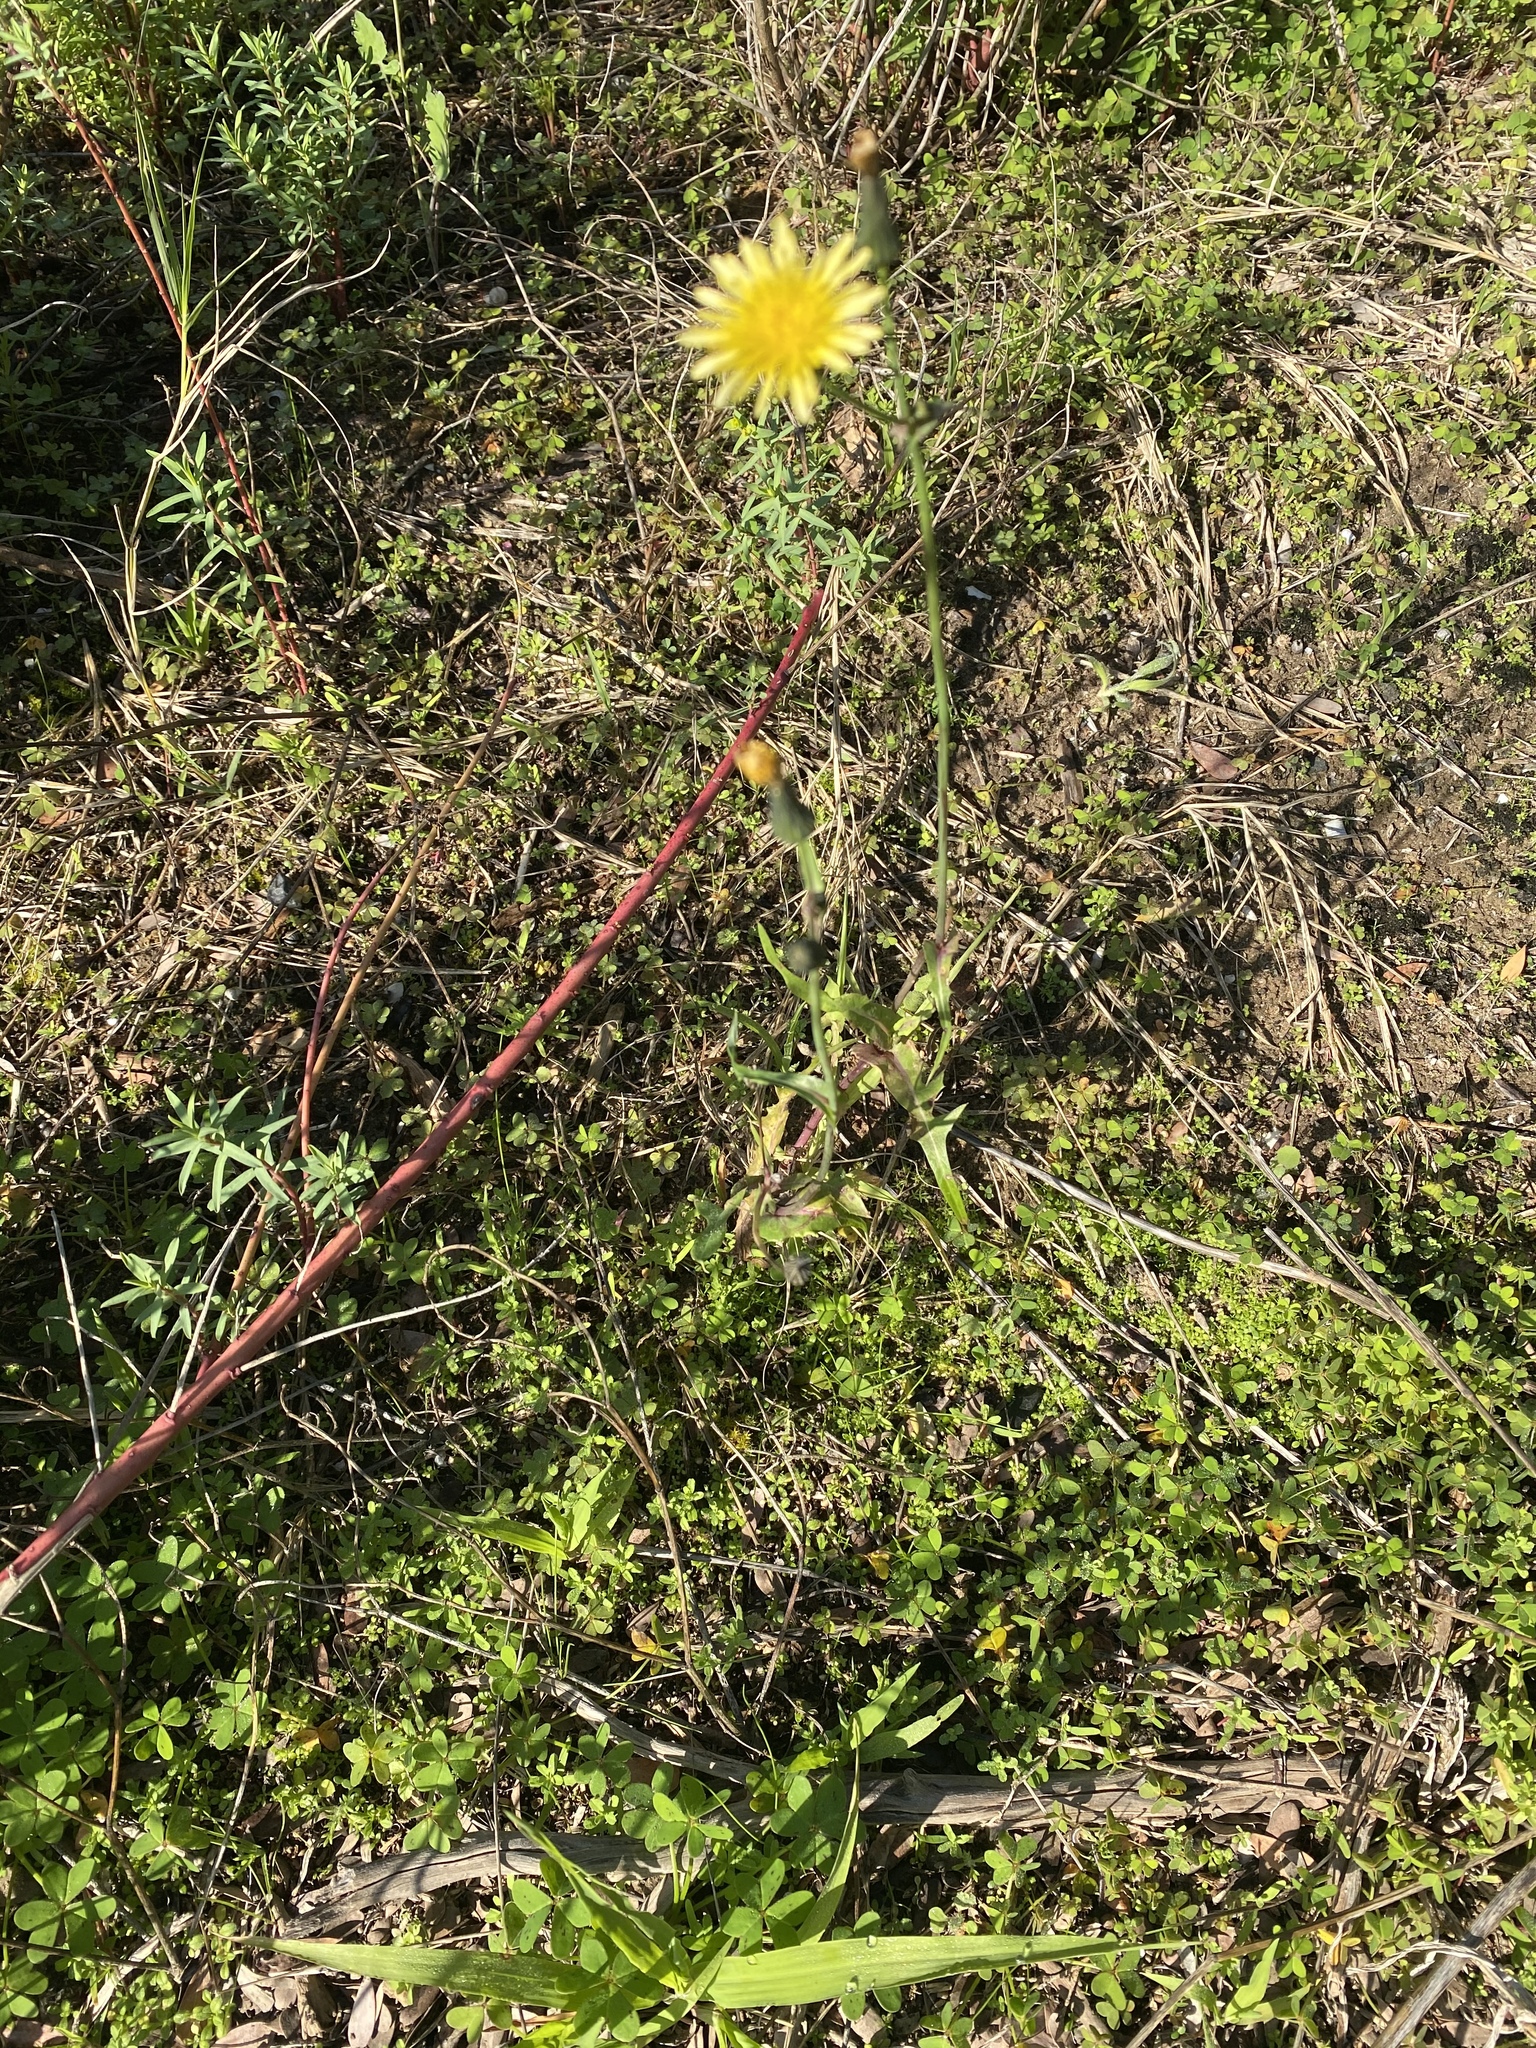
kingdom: Plantae
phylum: Tracheophyta
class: Magnoliopsida
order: Asterales
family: Asteraceae
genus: Sonchus
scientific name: Sonchus oleraceus
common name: Common sowthistle
